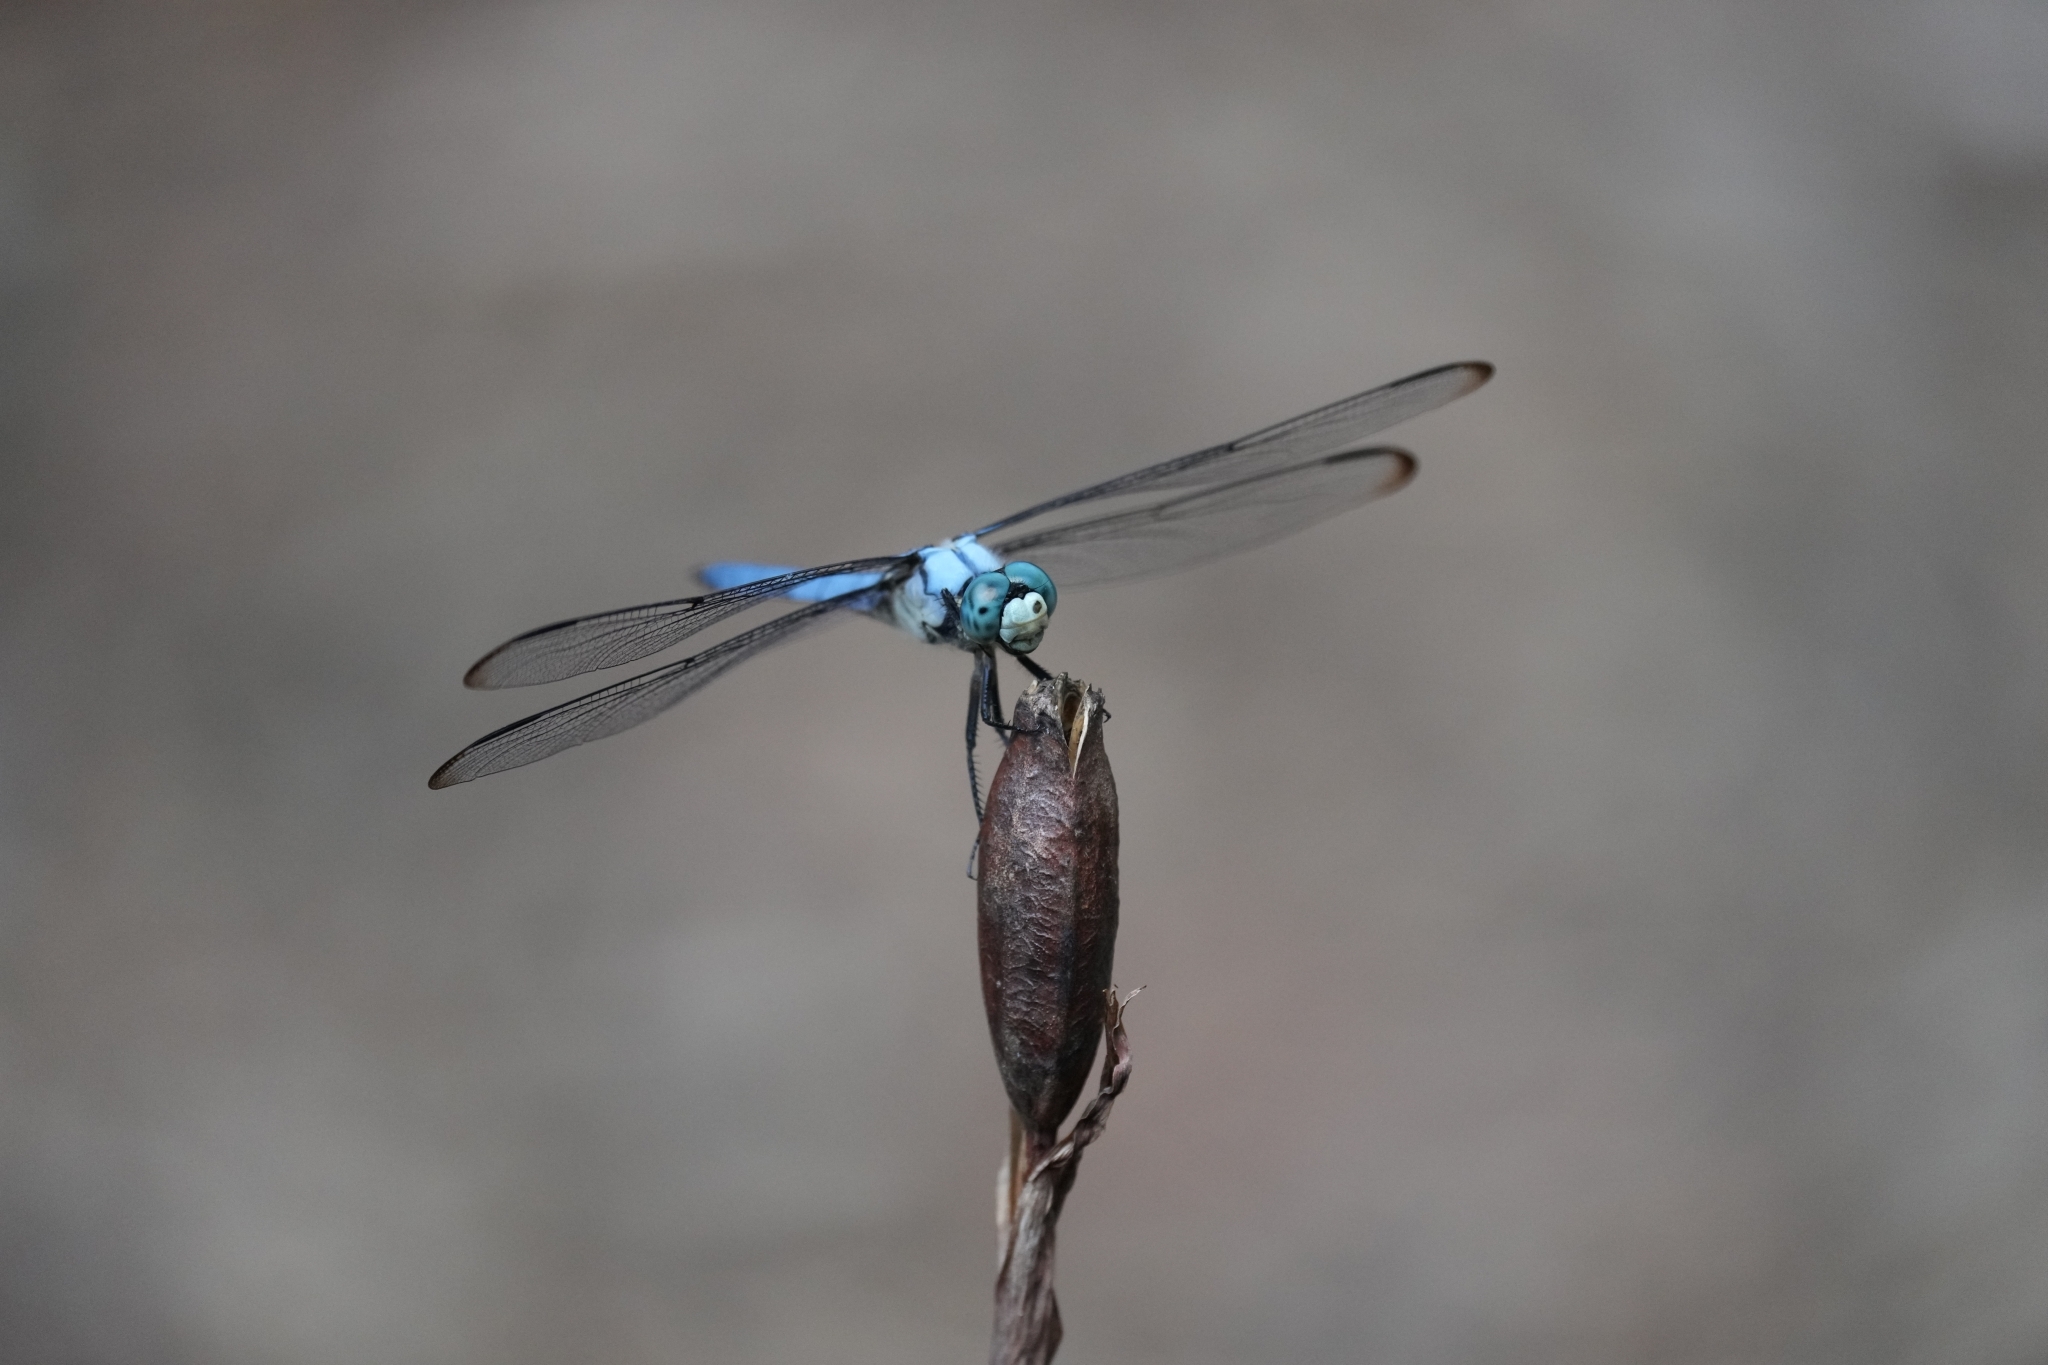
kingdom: Animalia
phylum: Arthropoda
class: Insecta
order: Odonata
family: Libellulidae
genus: Libellula
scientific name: Libellula vibrans
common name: Great blue skimmer
